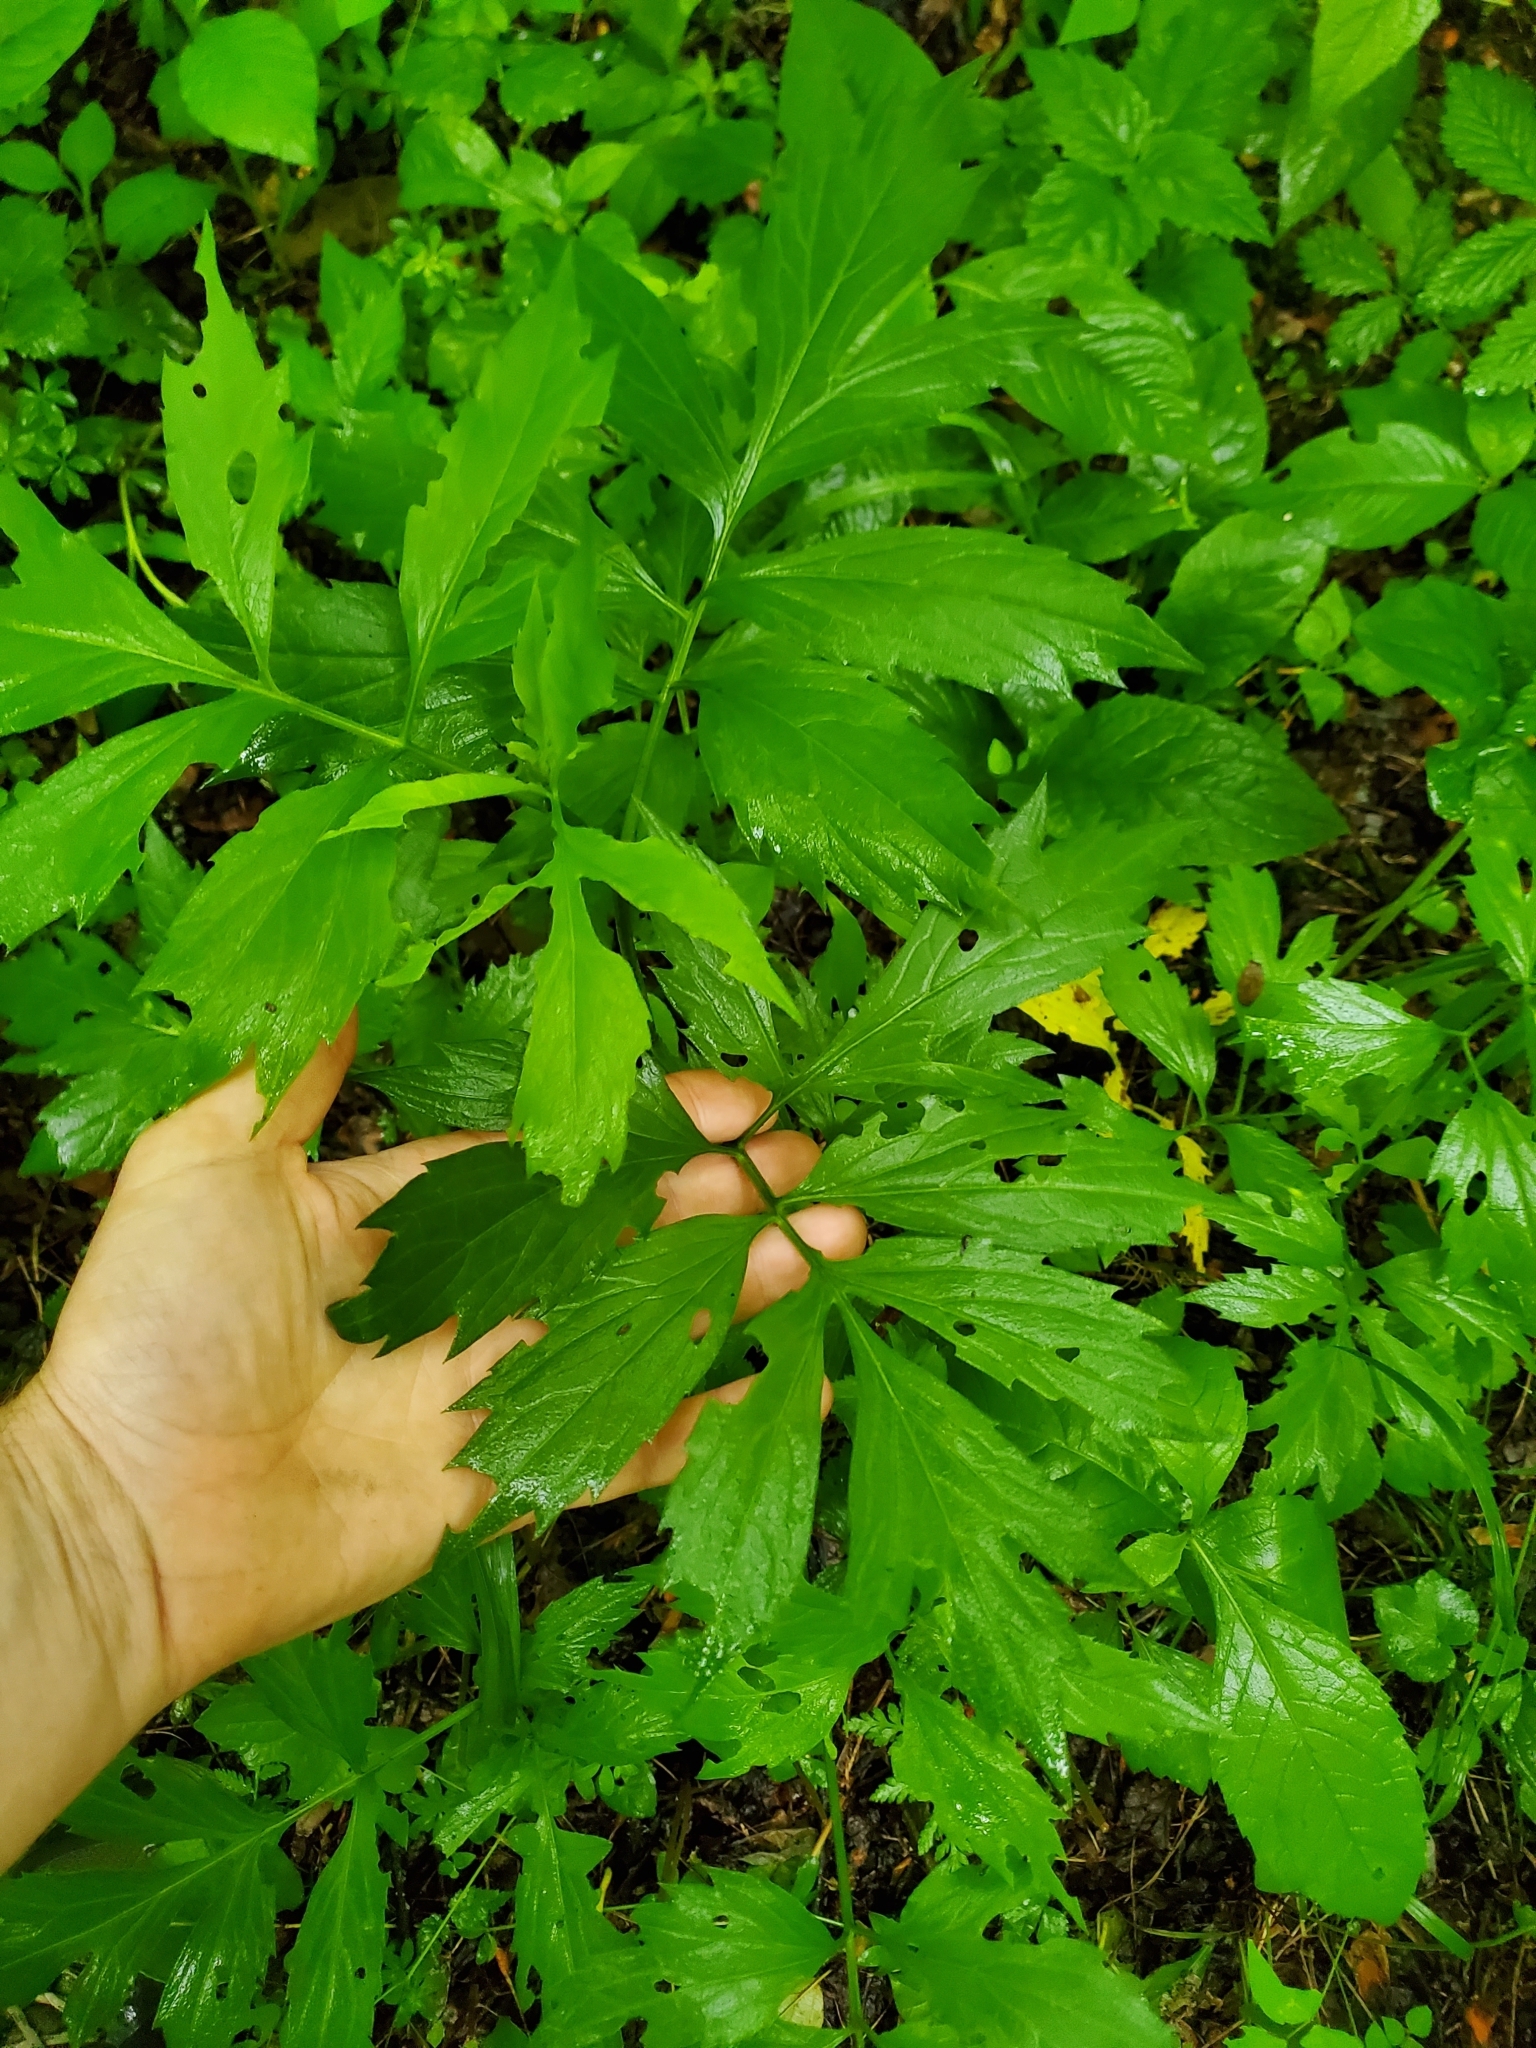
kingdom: Plantae
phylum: Tracheophyta
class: Magnoliopsida
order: Asterales
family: Asteraceae
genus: Rudbeckia
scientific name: Rudbeckia laciniata
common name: Coneflower
